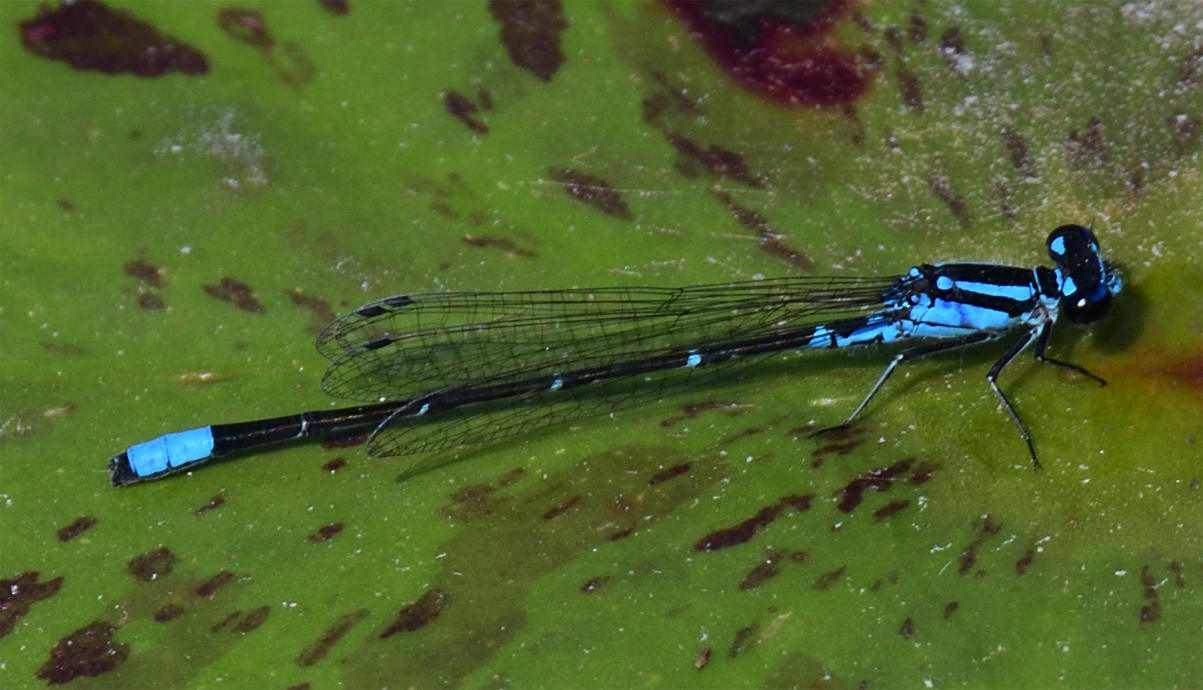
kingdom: Animalia
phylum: Arthropoda
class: Insecta
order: Odonata
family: Coenagrionidae
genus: Enallagma
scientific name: Enallagma geminatum
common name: Skimming bluet
